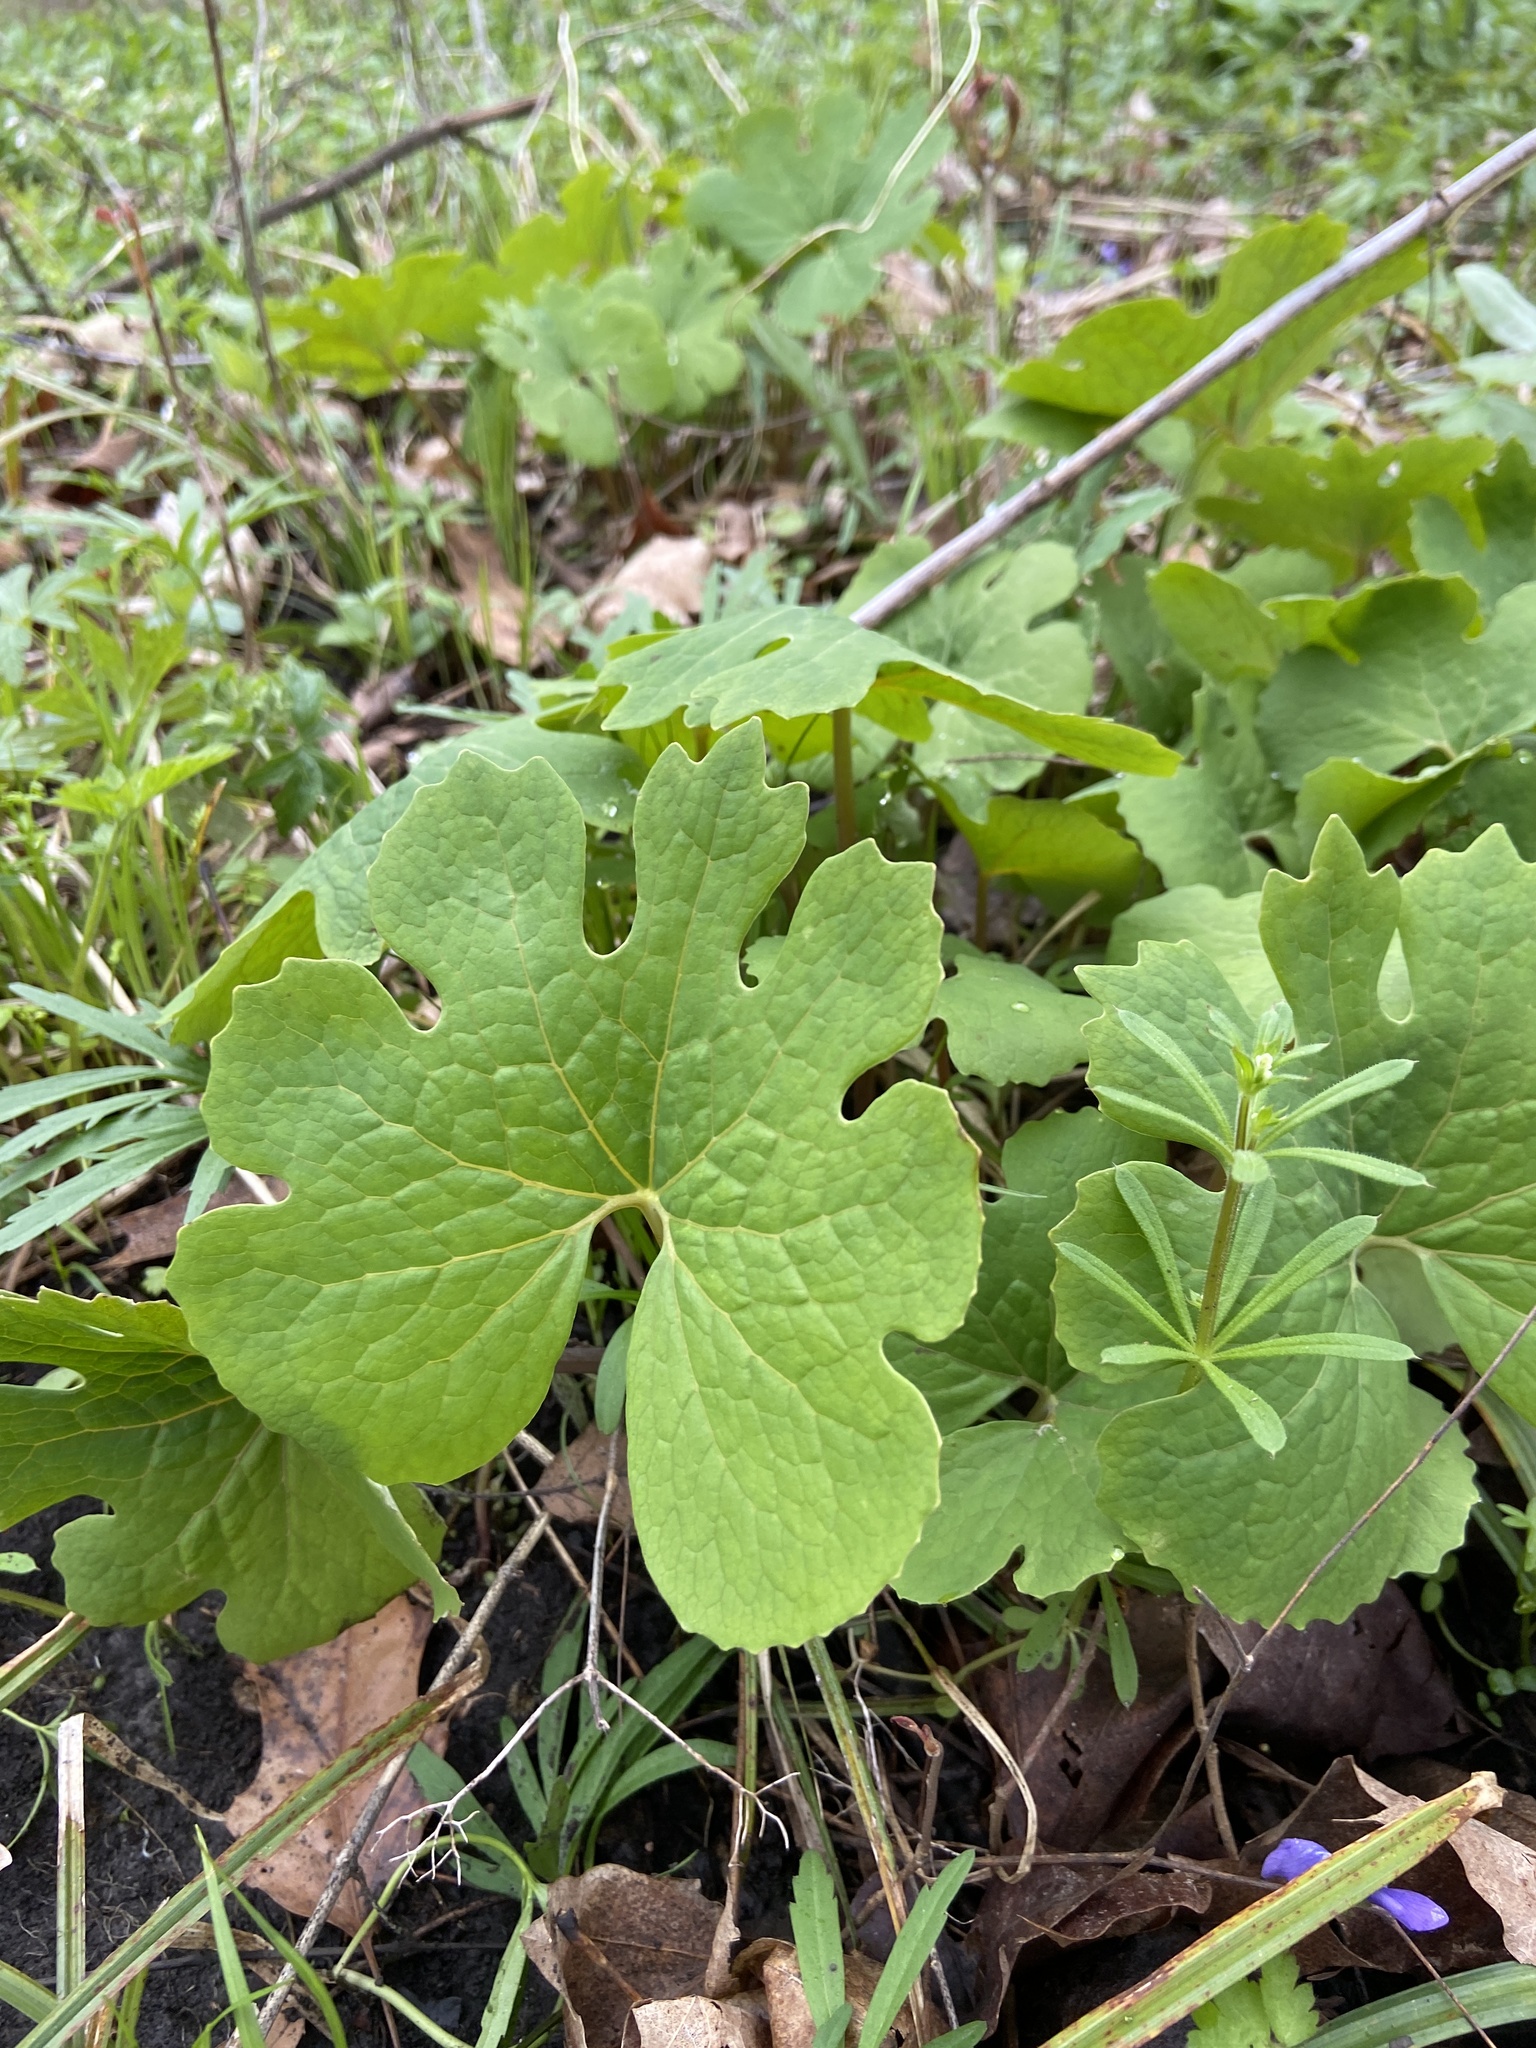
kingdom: Plantae
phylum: Tracheophyta
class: Magnoliopsida
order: Ranunculales
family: Papaveraceae
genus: Sanguinaria
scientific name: Sanguinaria canadensis
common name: Bloodroot
